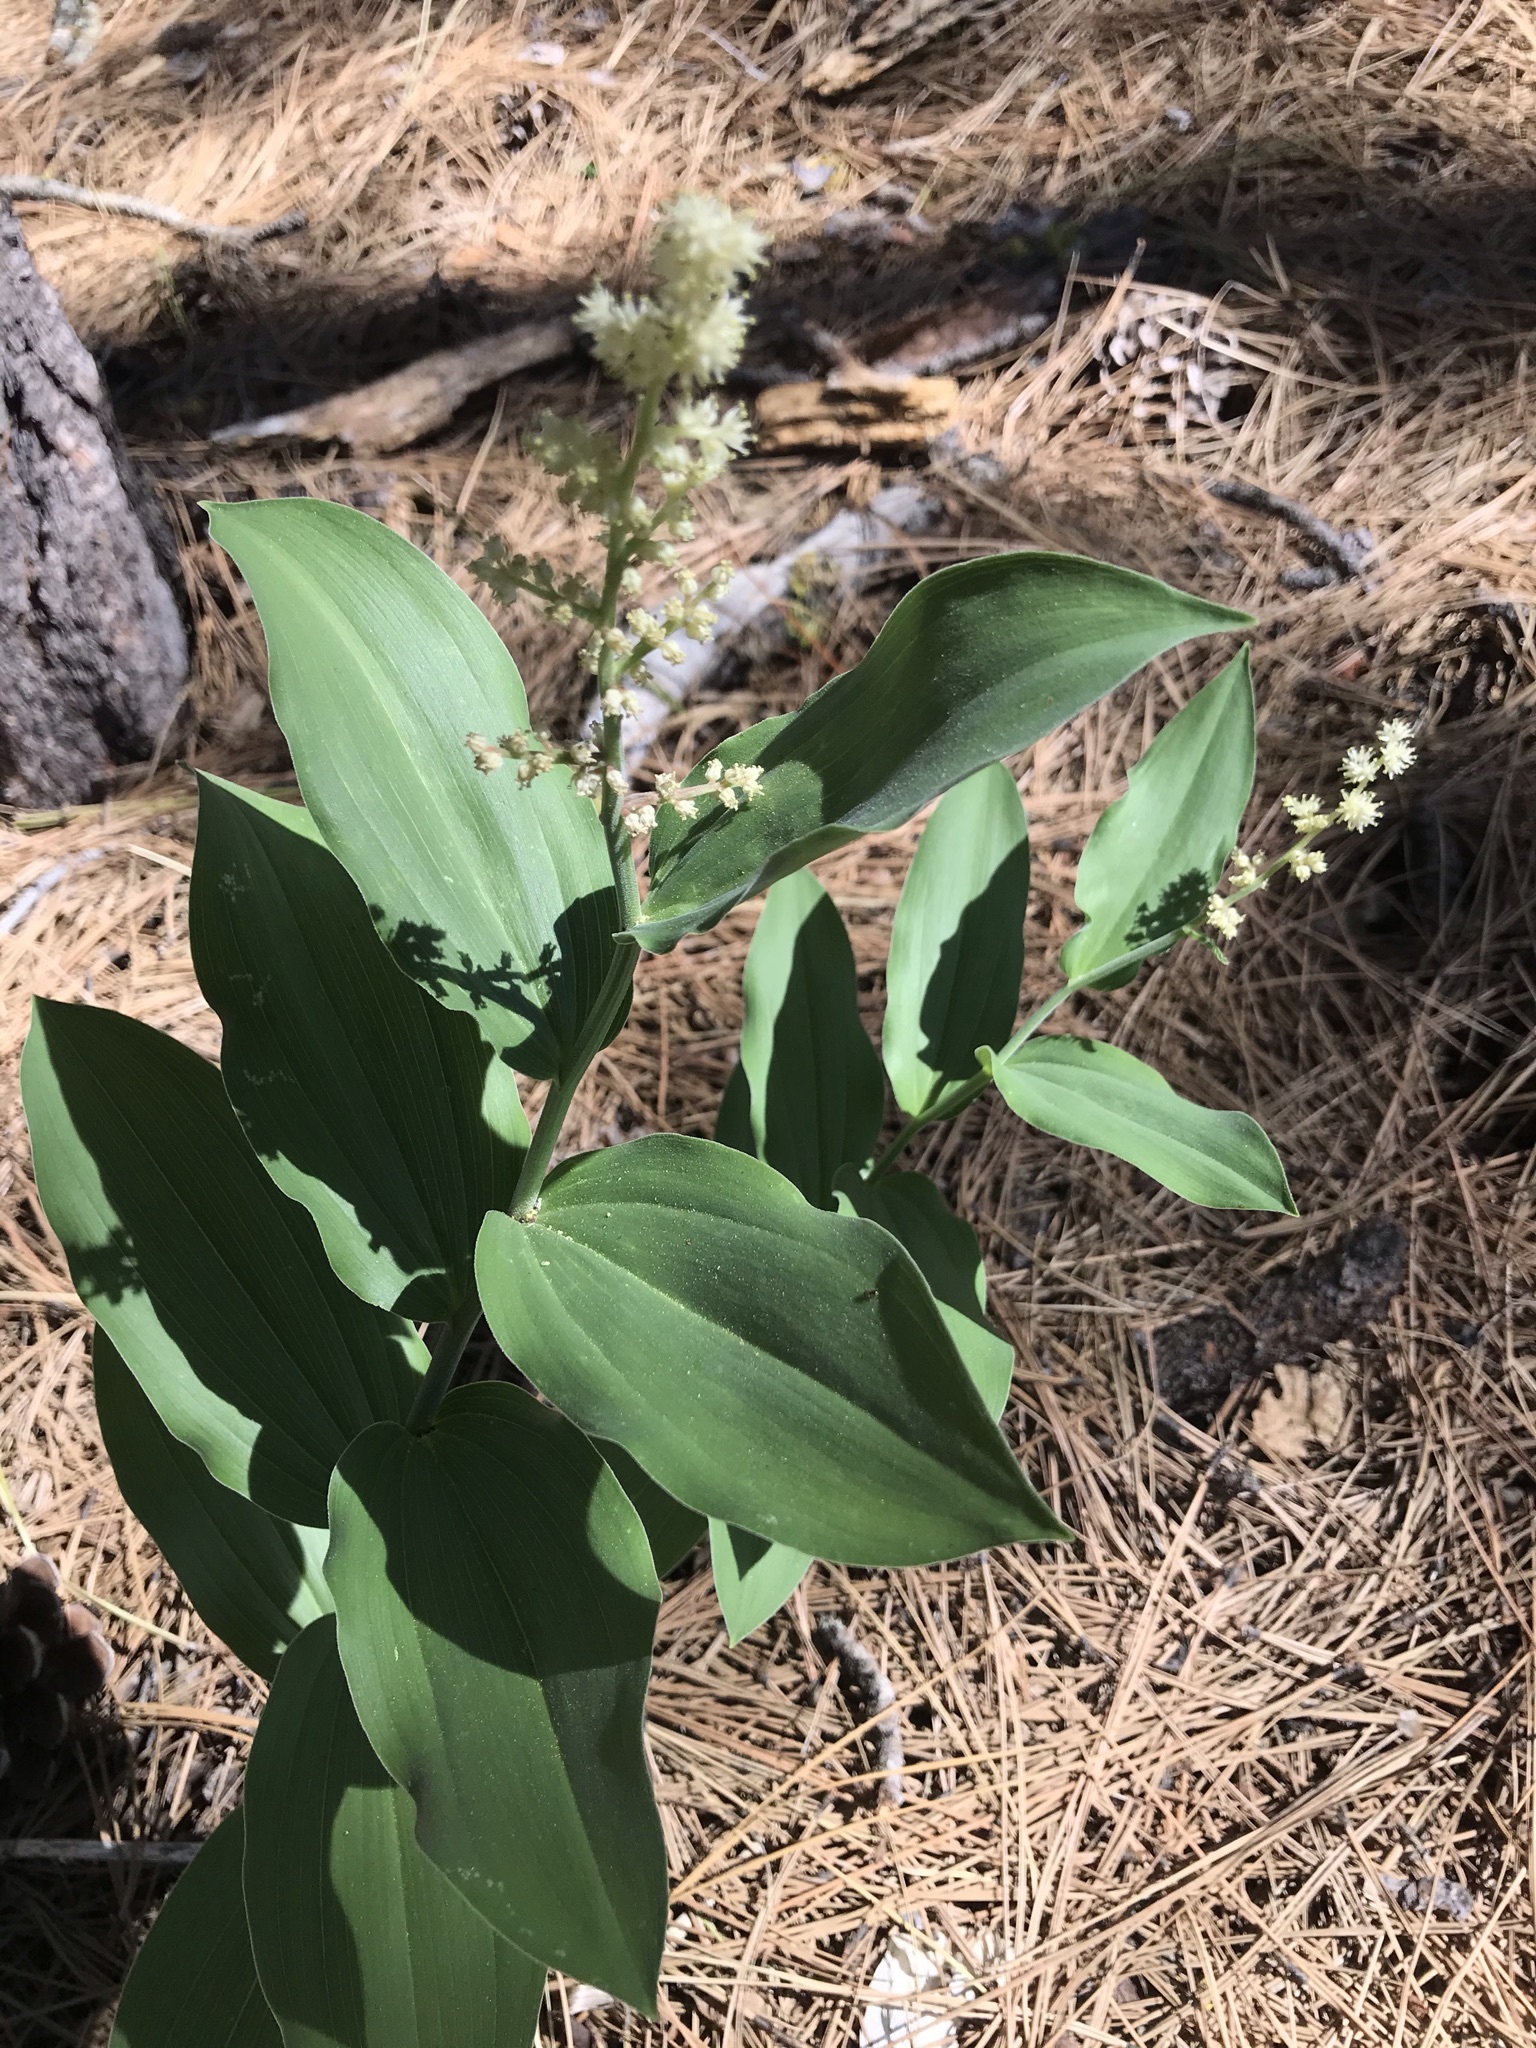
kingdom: Plantae
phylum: Tracheophyta
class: Liliopsida
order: Asparagales
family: Asparagaceae
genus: Maianthemum
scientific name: Maianthemum racemosum
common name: False spikenard
